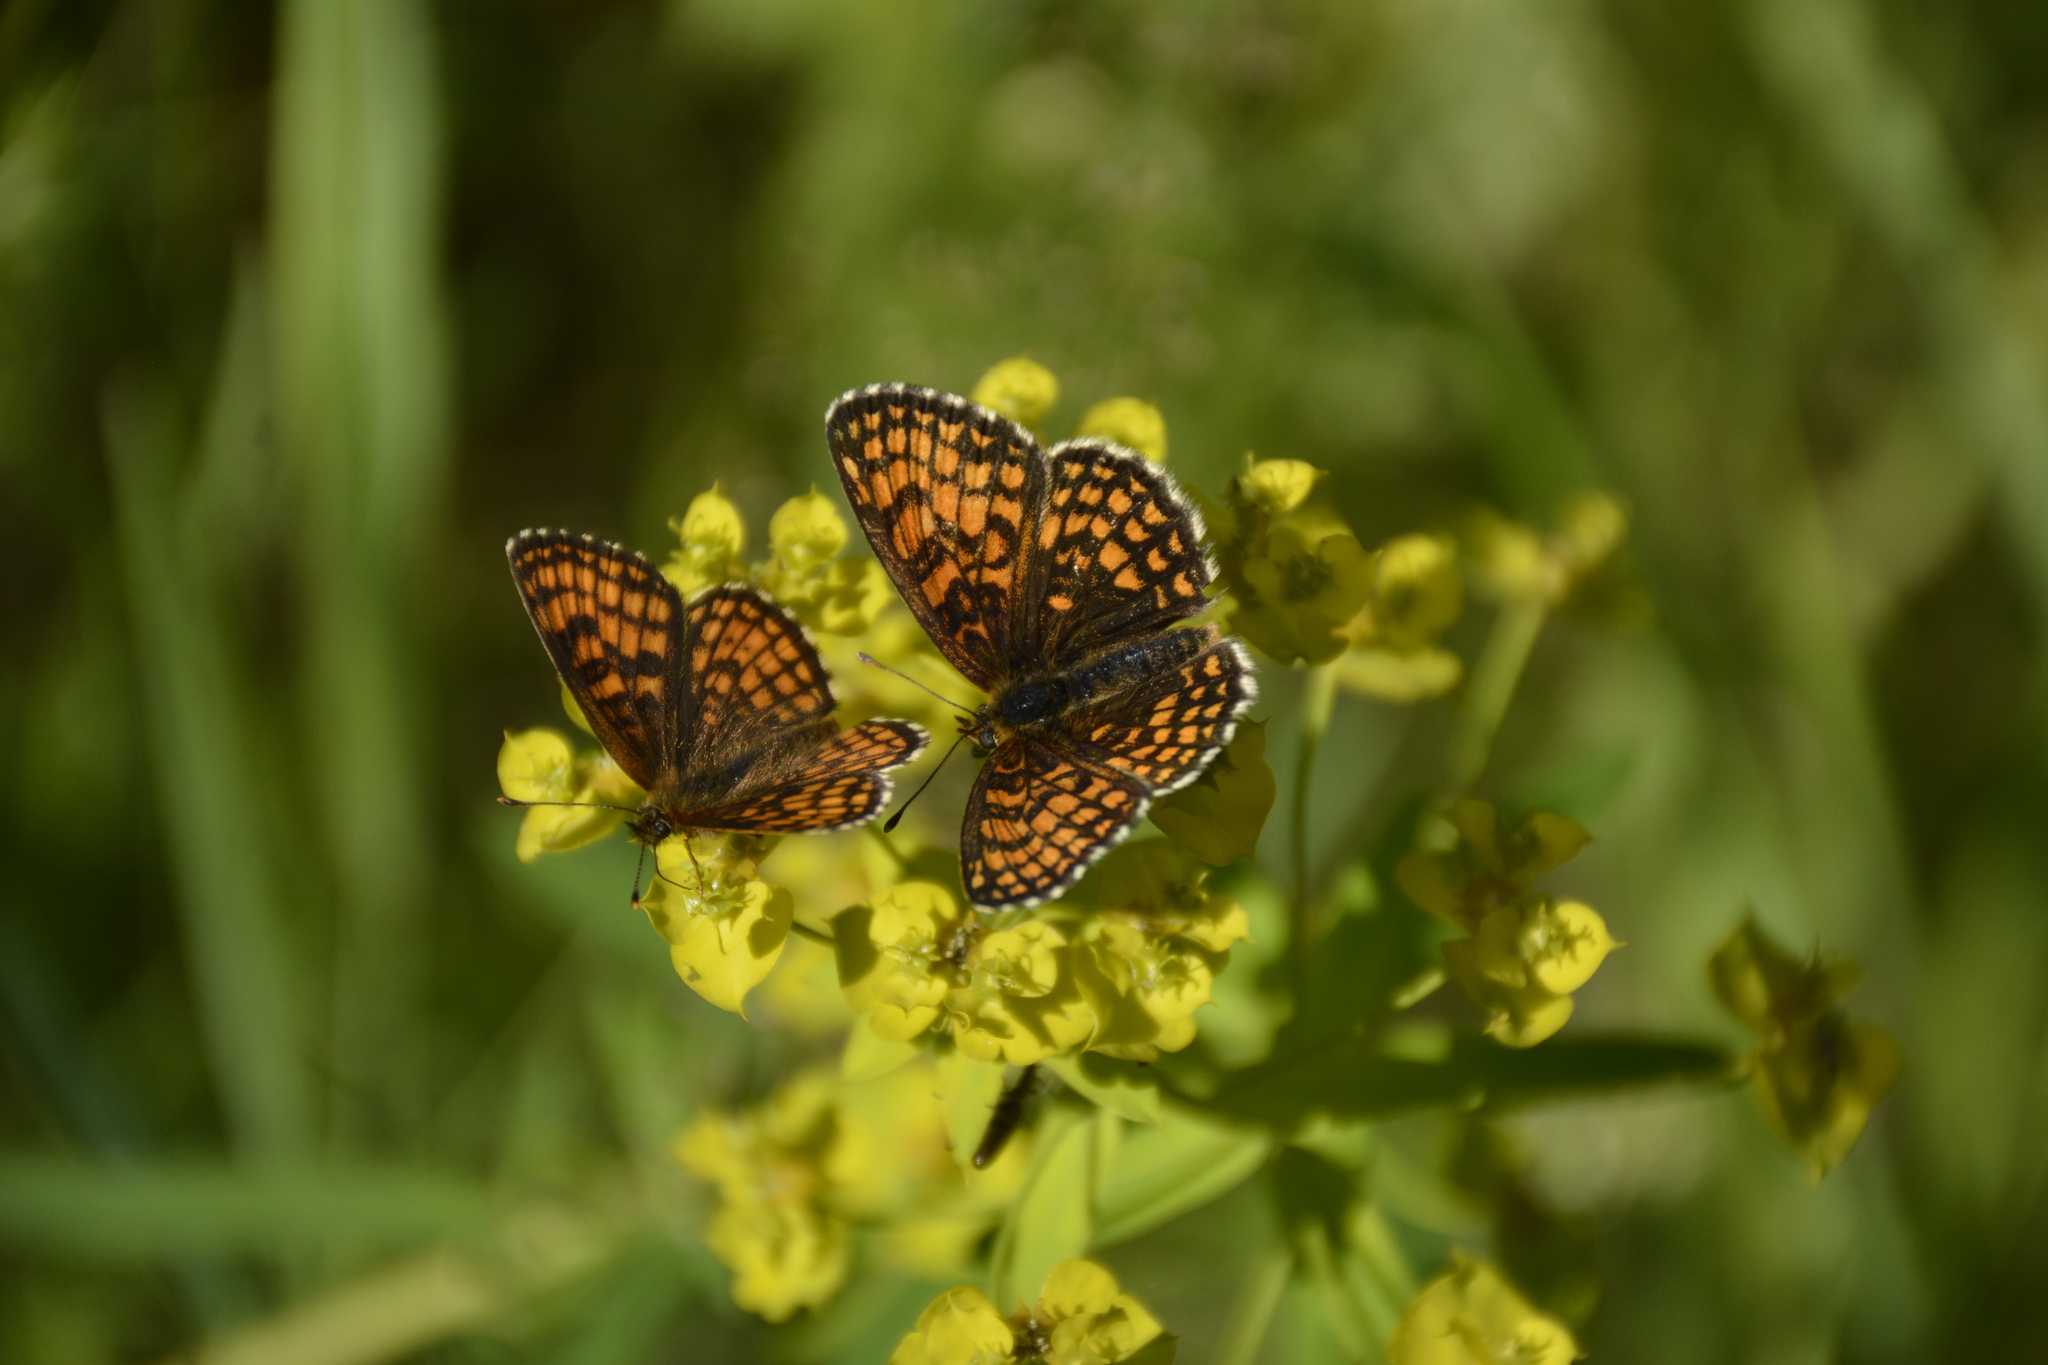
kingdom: Animalia
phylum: Arthropoda
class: Insecta
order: Lepidoptera
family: Nymphalidae
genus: Melitaea
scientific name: Melitaea athalia
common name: Heath fritillary
